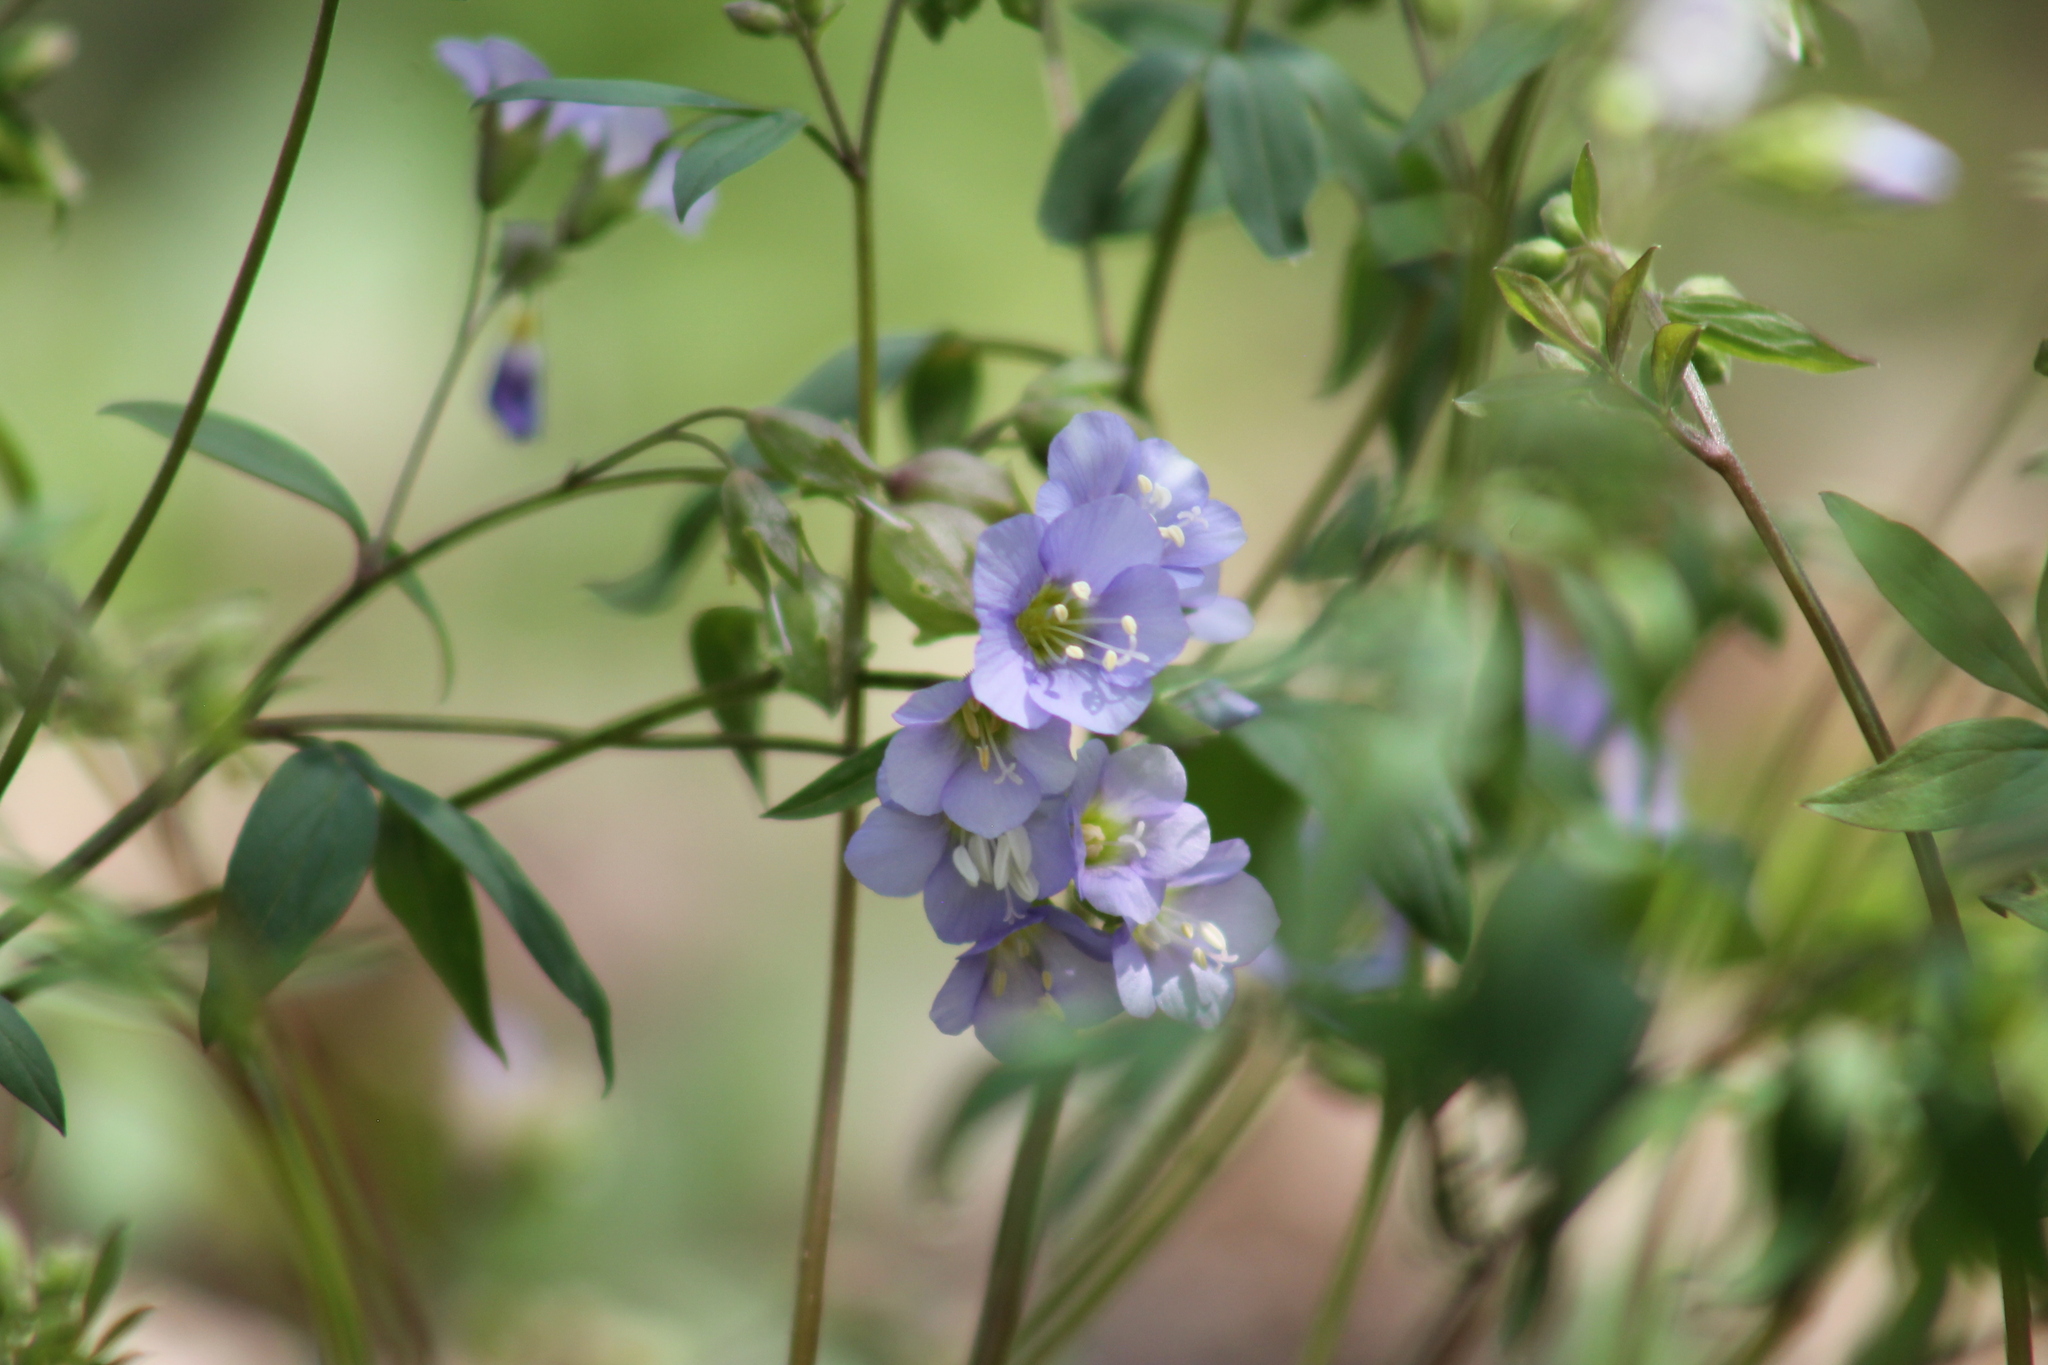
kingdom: Plantae
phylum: Tracheophyta
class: Magnoliopsida
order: Ericales
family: Polemoniaceae
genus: Polemonium
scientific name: Polemonium reptans
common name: Creeping jacob's-ladder
